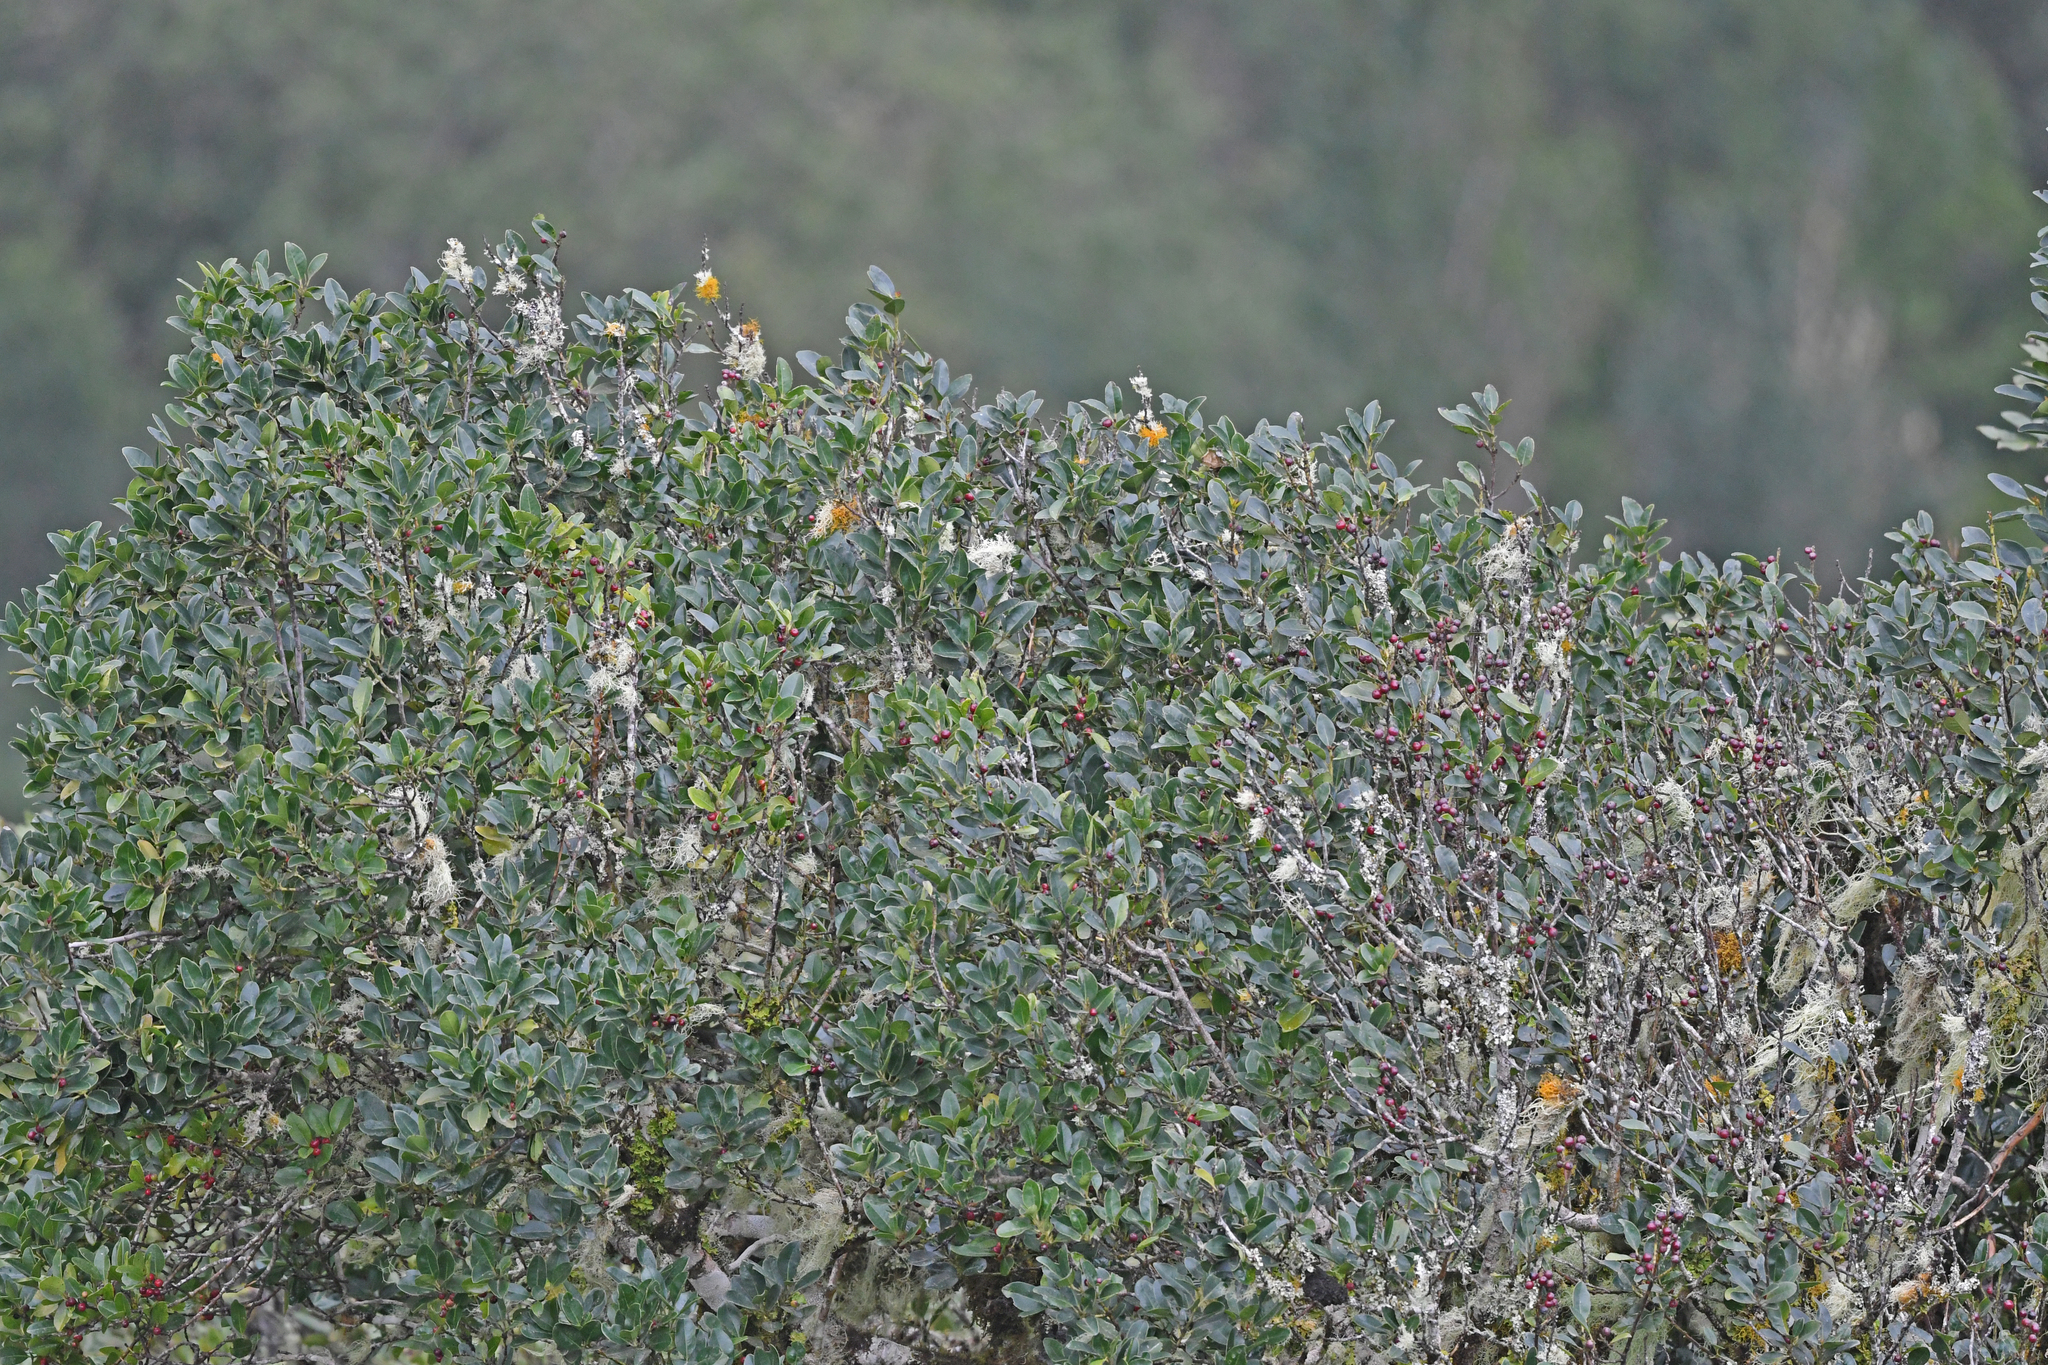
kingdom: Plantae
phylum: Tracheophyta
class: Magnoliopsida
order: Aquifoliales
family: Aquifoliaceae
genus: Ilex
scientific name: Ilex canariensis
